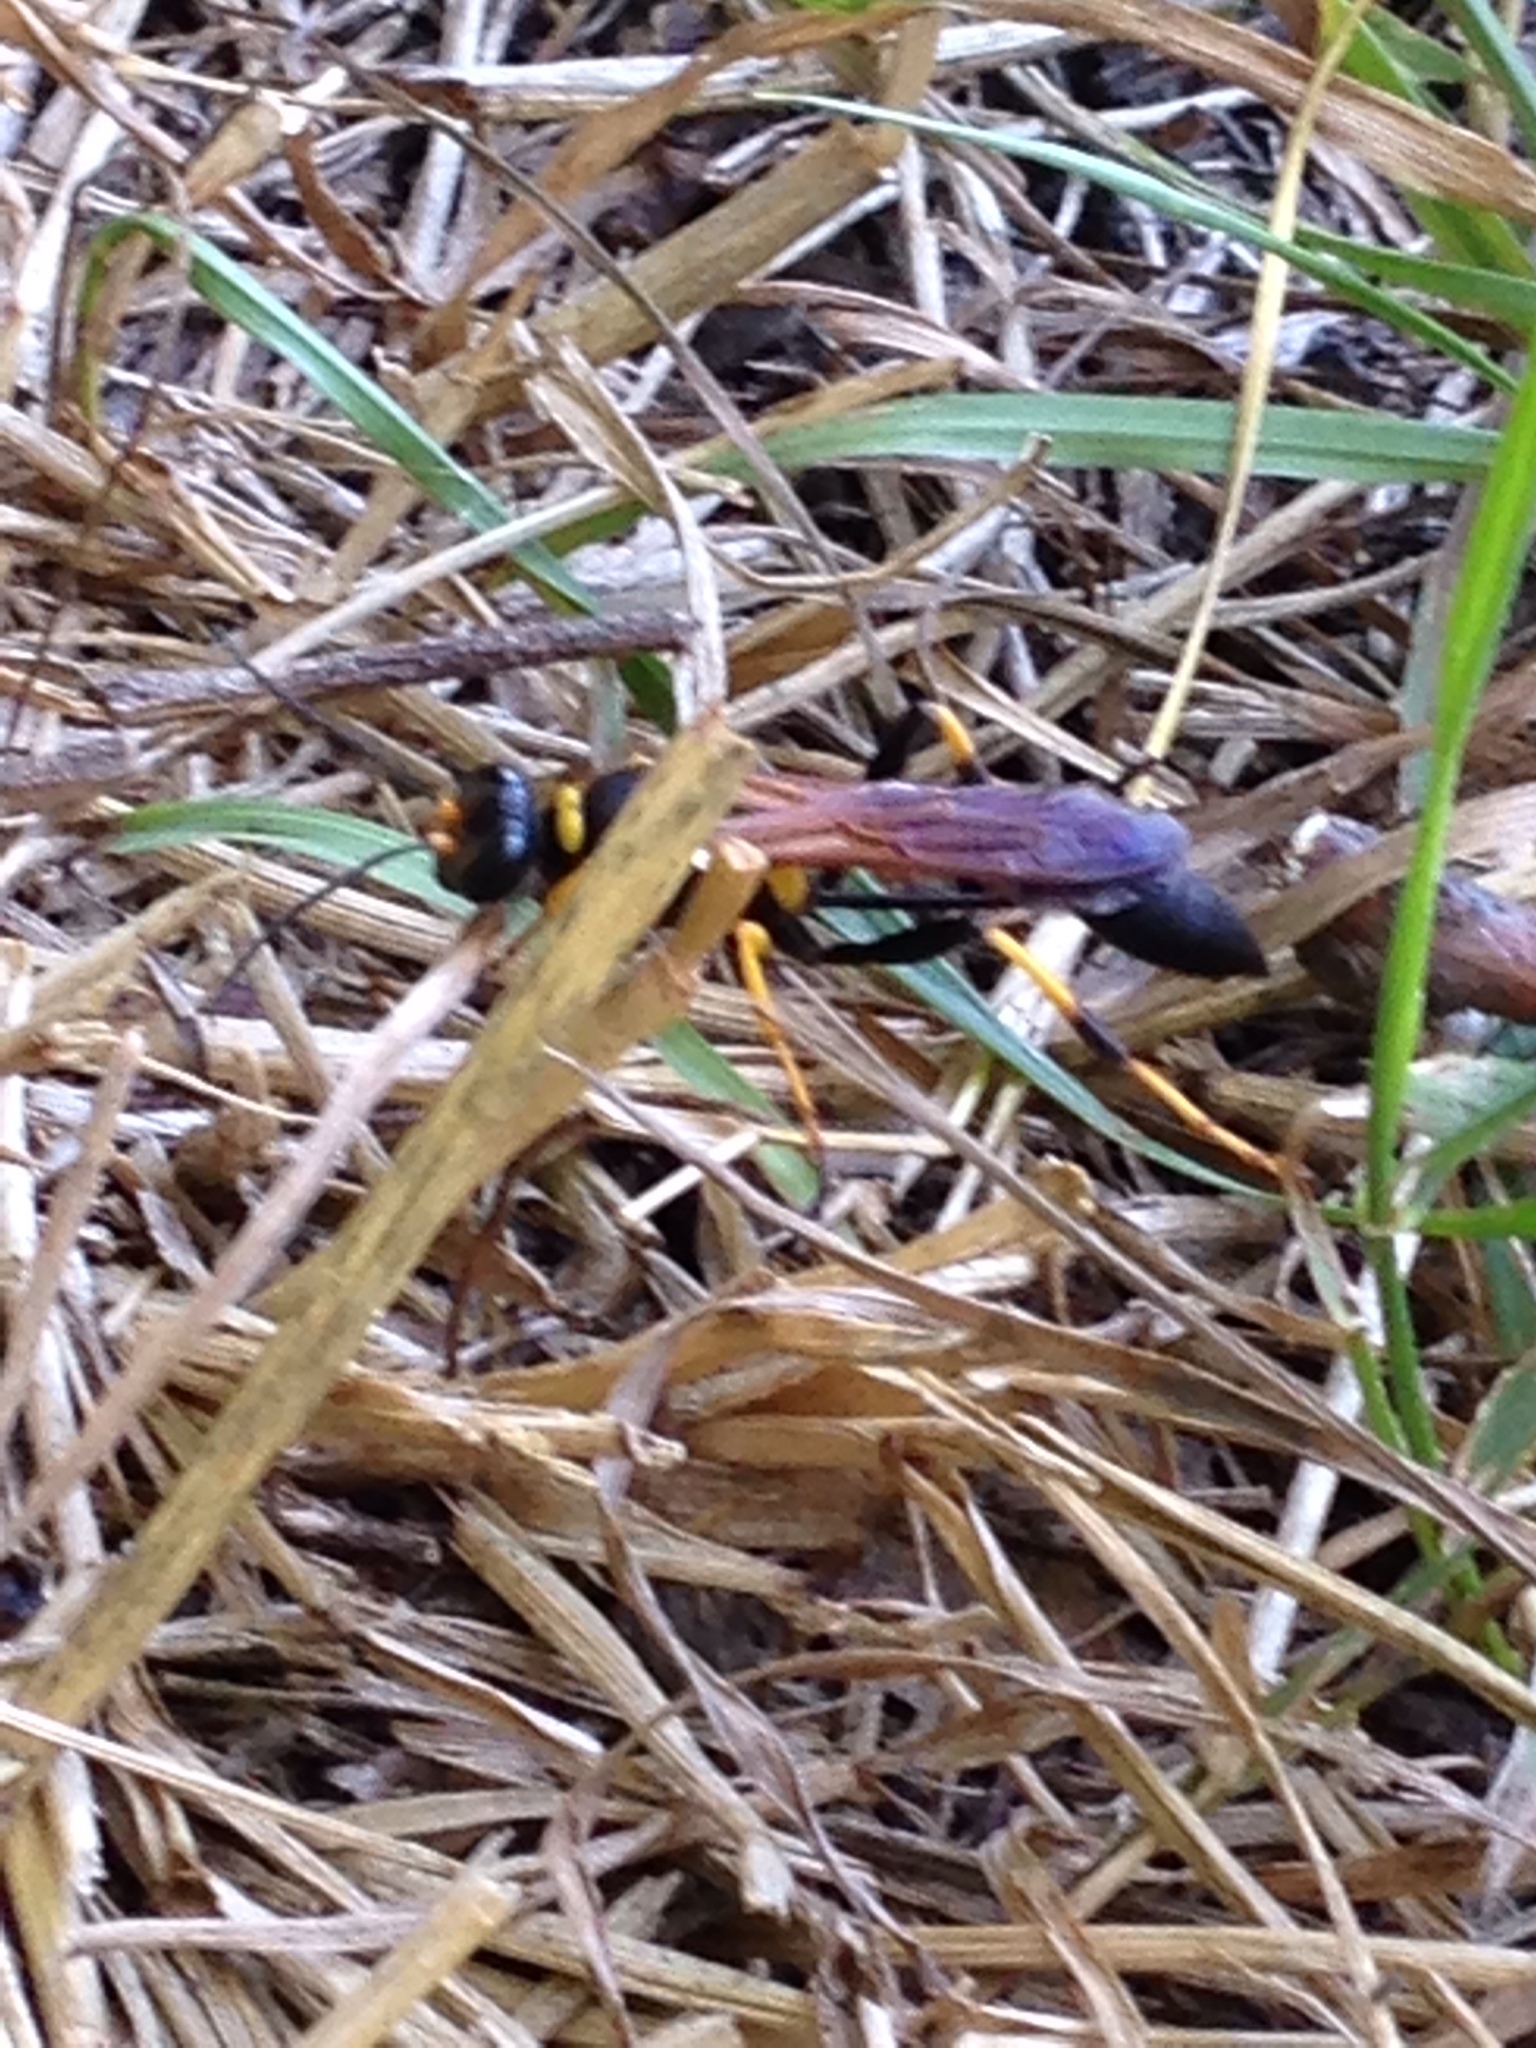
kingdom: Animalia
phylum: Arthropoda
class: Insecta
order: Hymenoptera
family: Sphecidae
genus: Sceliphron
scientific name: Sceliphron caementarium
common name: Mud dauber
